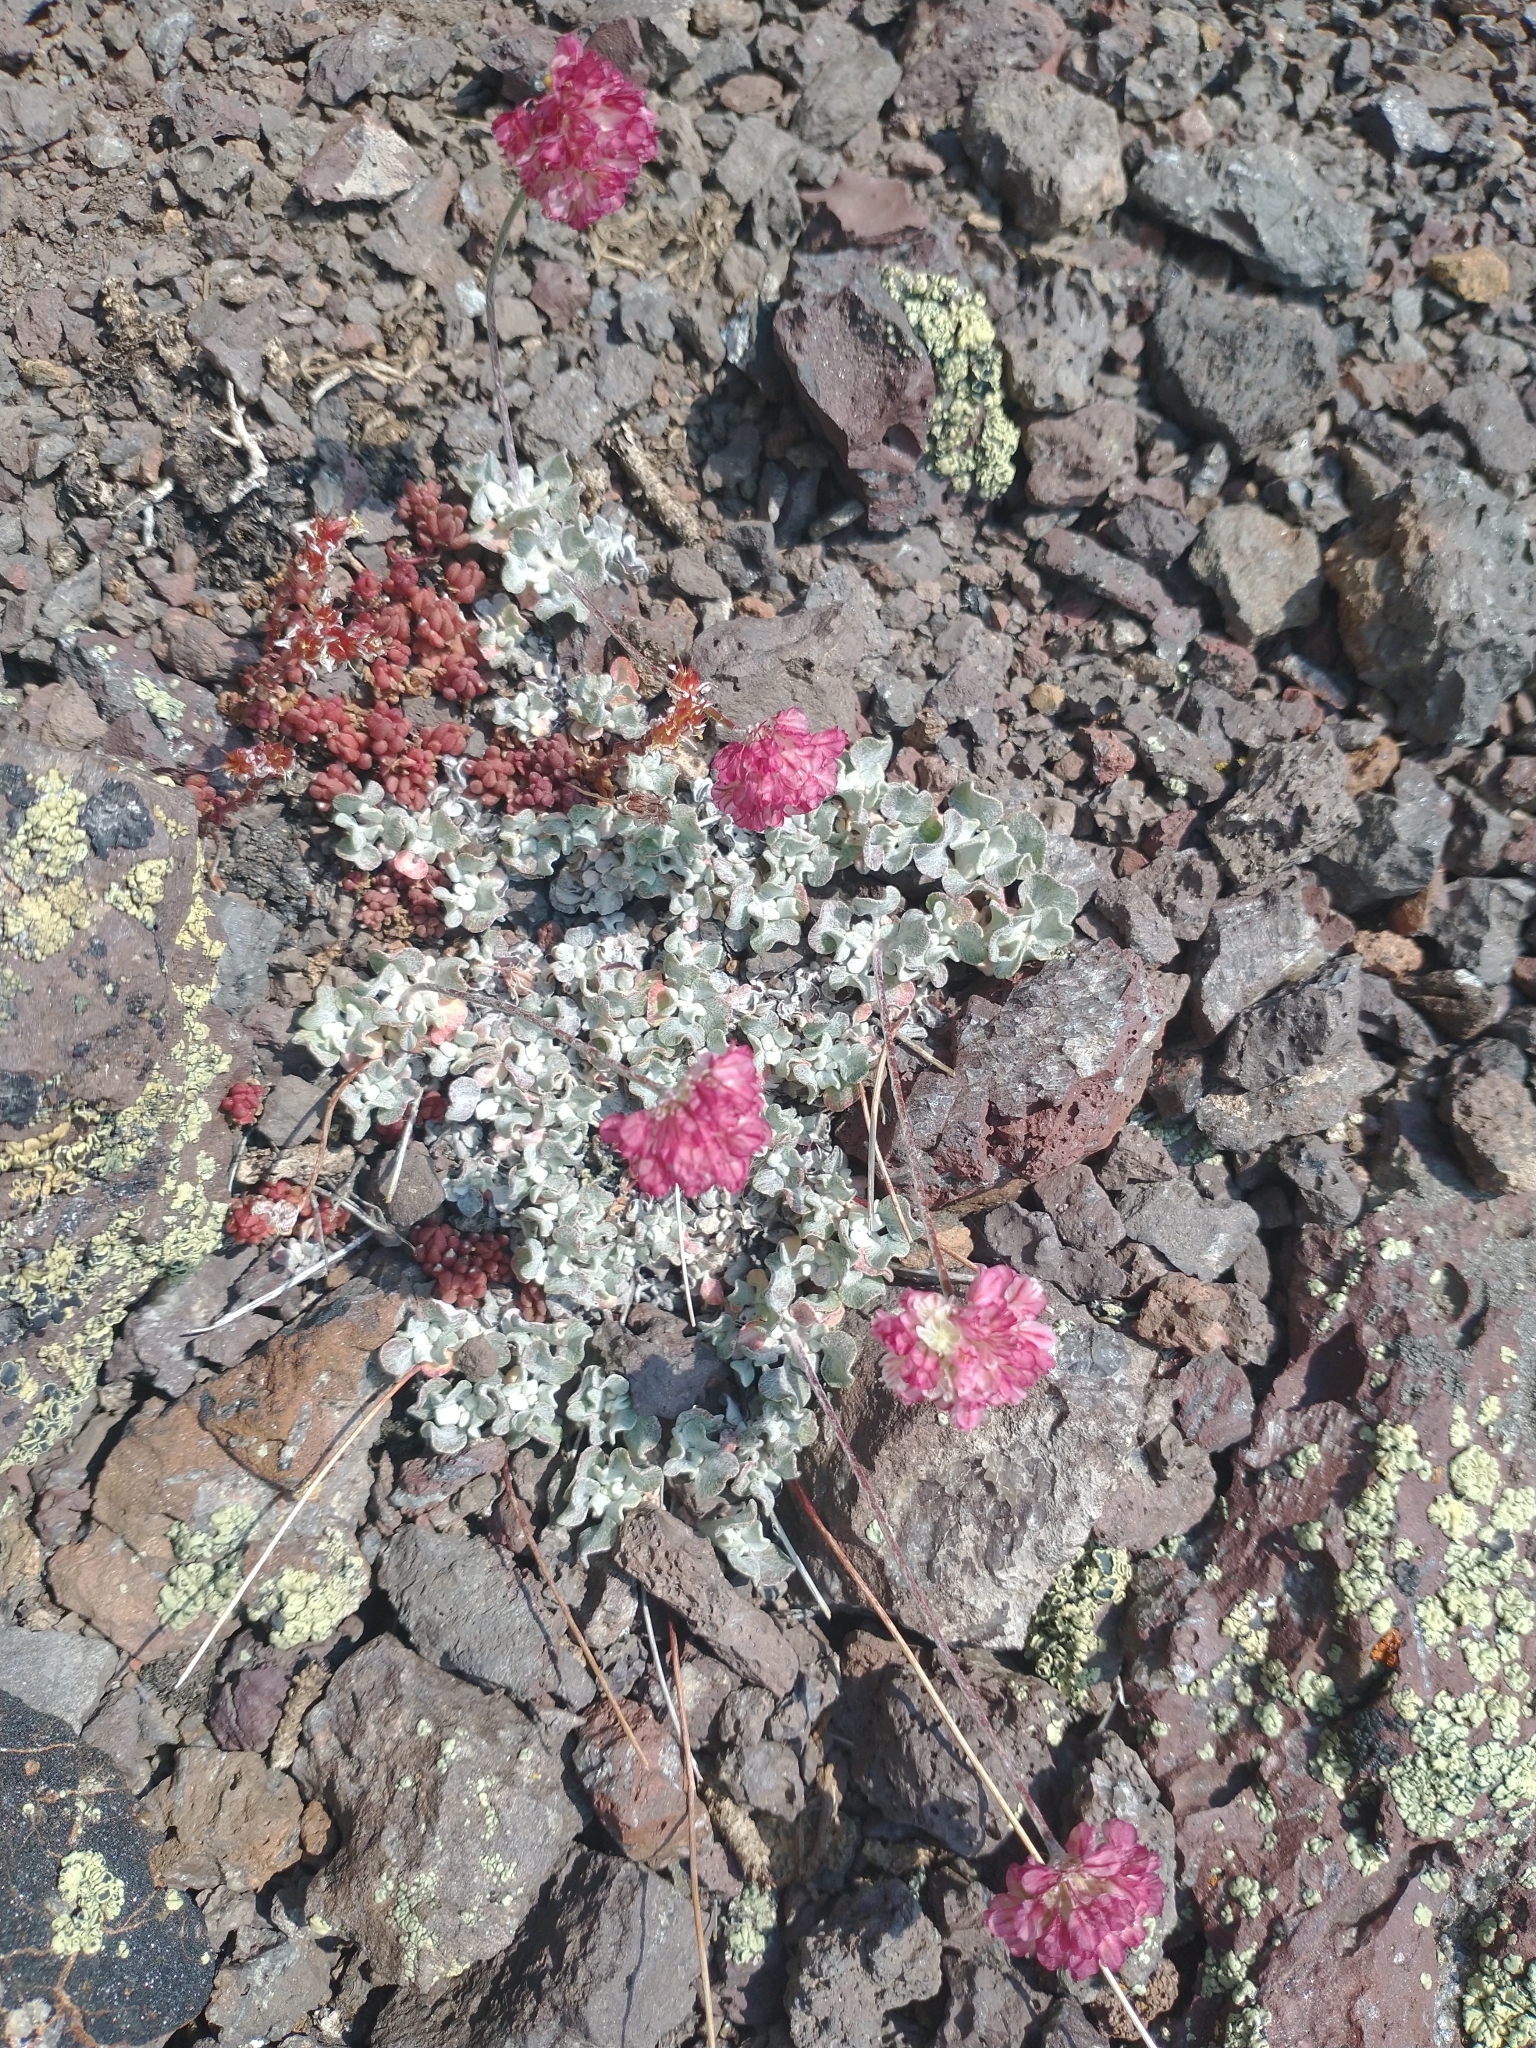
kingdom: Plantae
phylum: Tracheophyta
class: Magnoliopsida
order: Caryophyllales
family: Polygonaceae
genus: Eriogonum
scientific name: Eriogonum ovalifolium
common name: Cushion buckwheat
